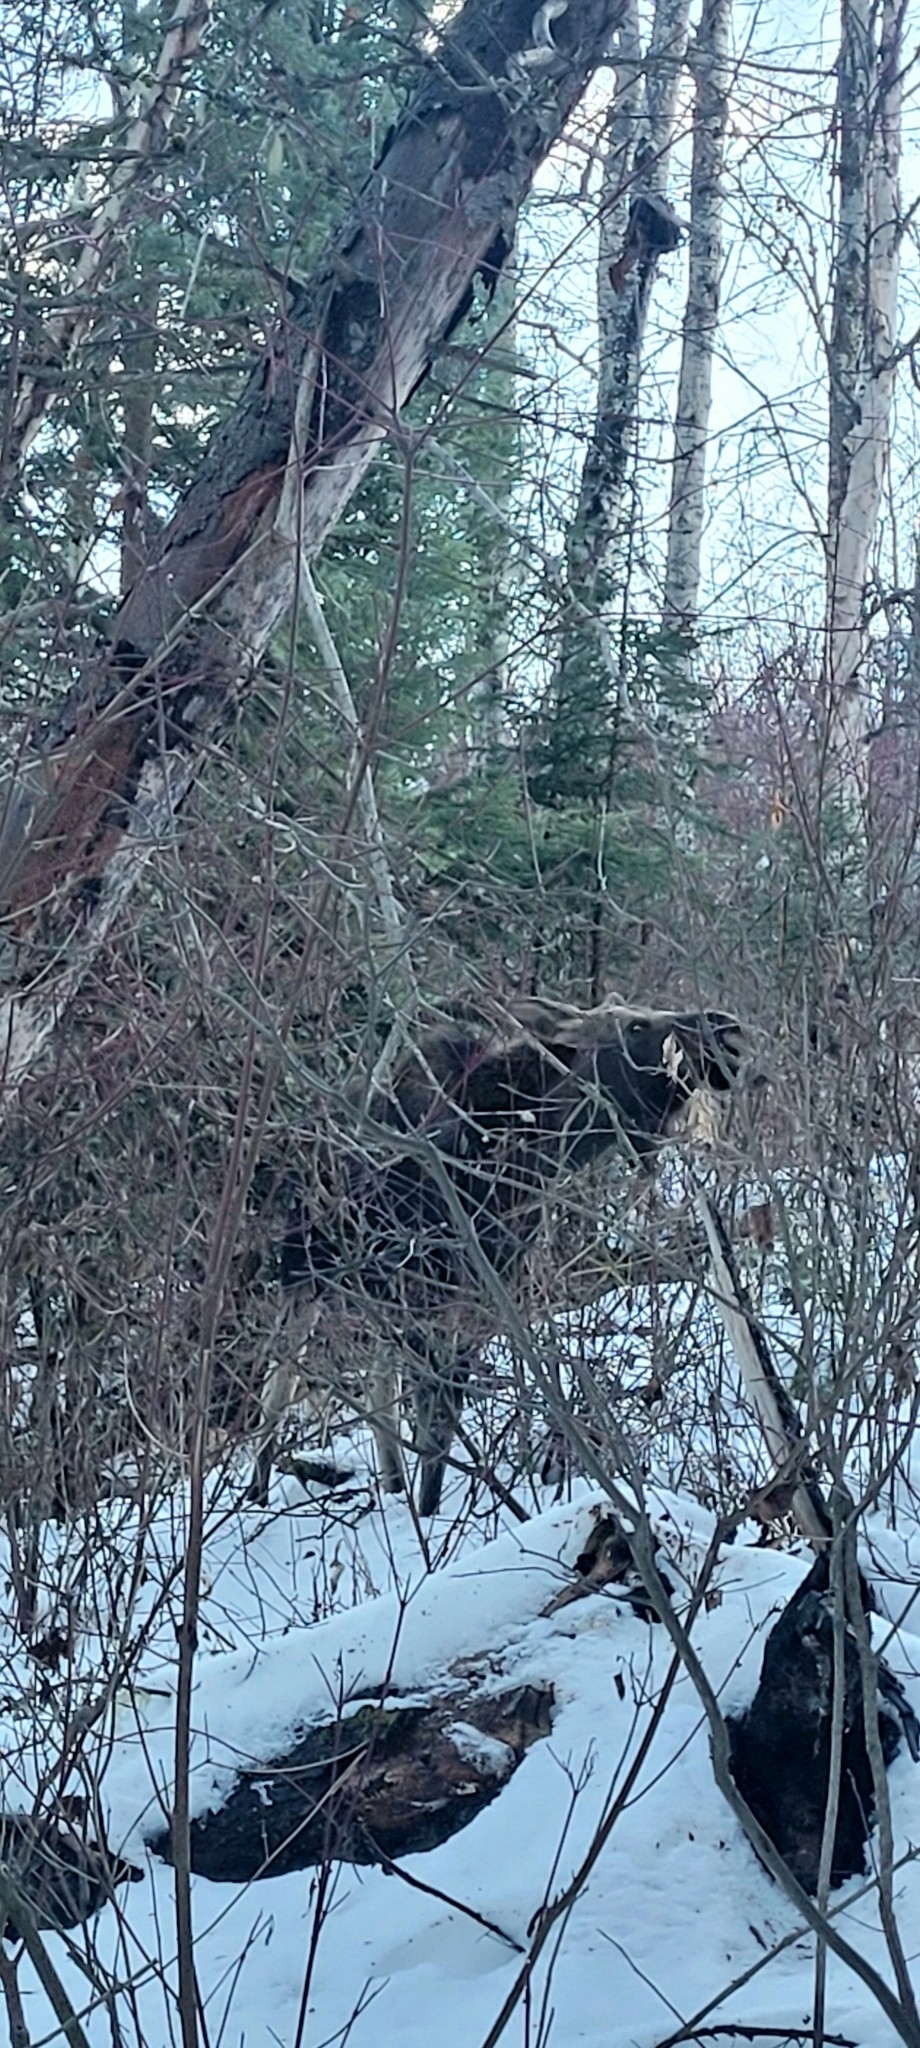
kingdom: Animalia
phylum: Chordata
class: Mammalia
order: Artiodactyla
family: Cervidae
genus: Alces
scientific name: Alces americanus
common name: Moose
